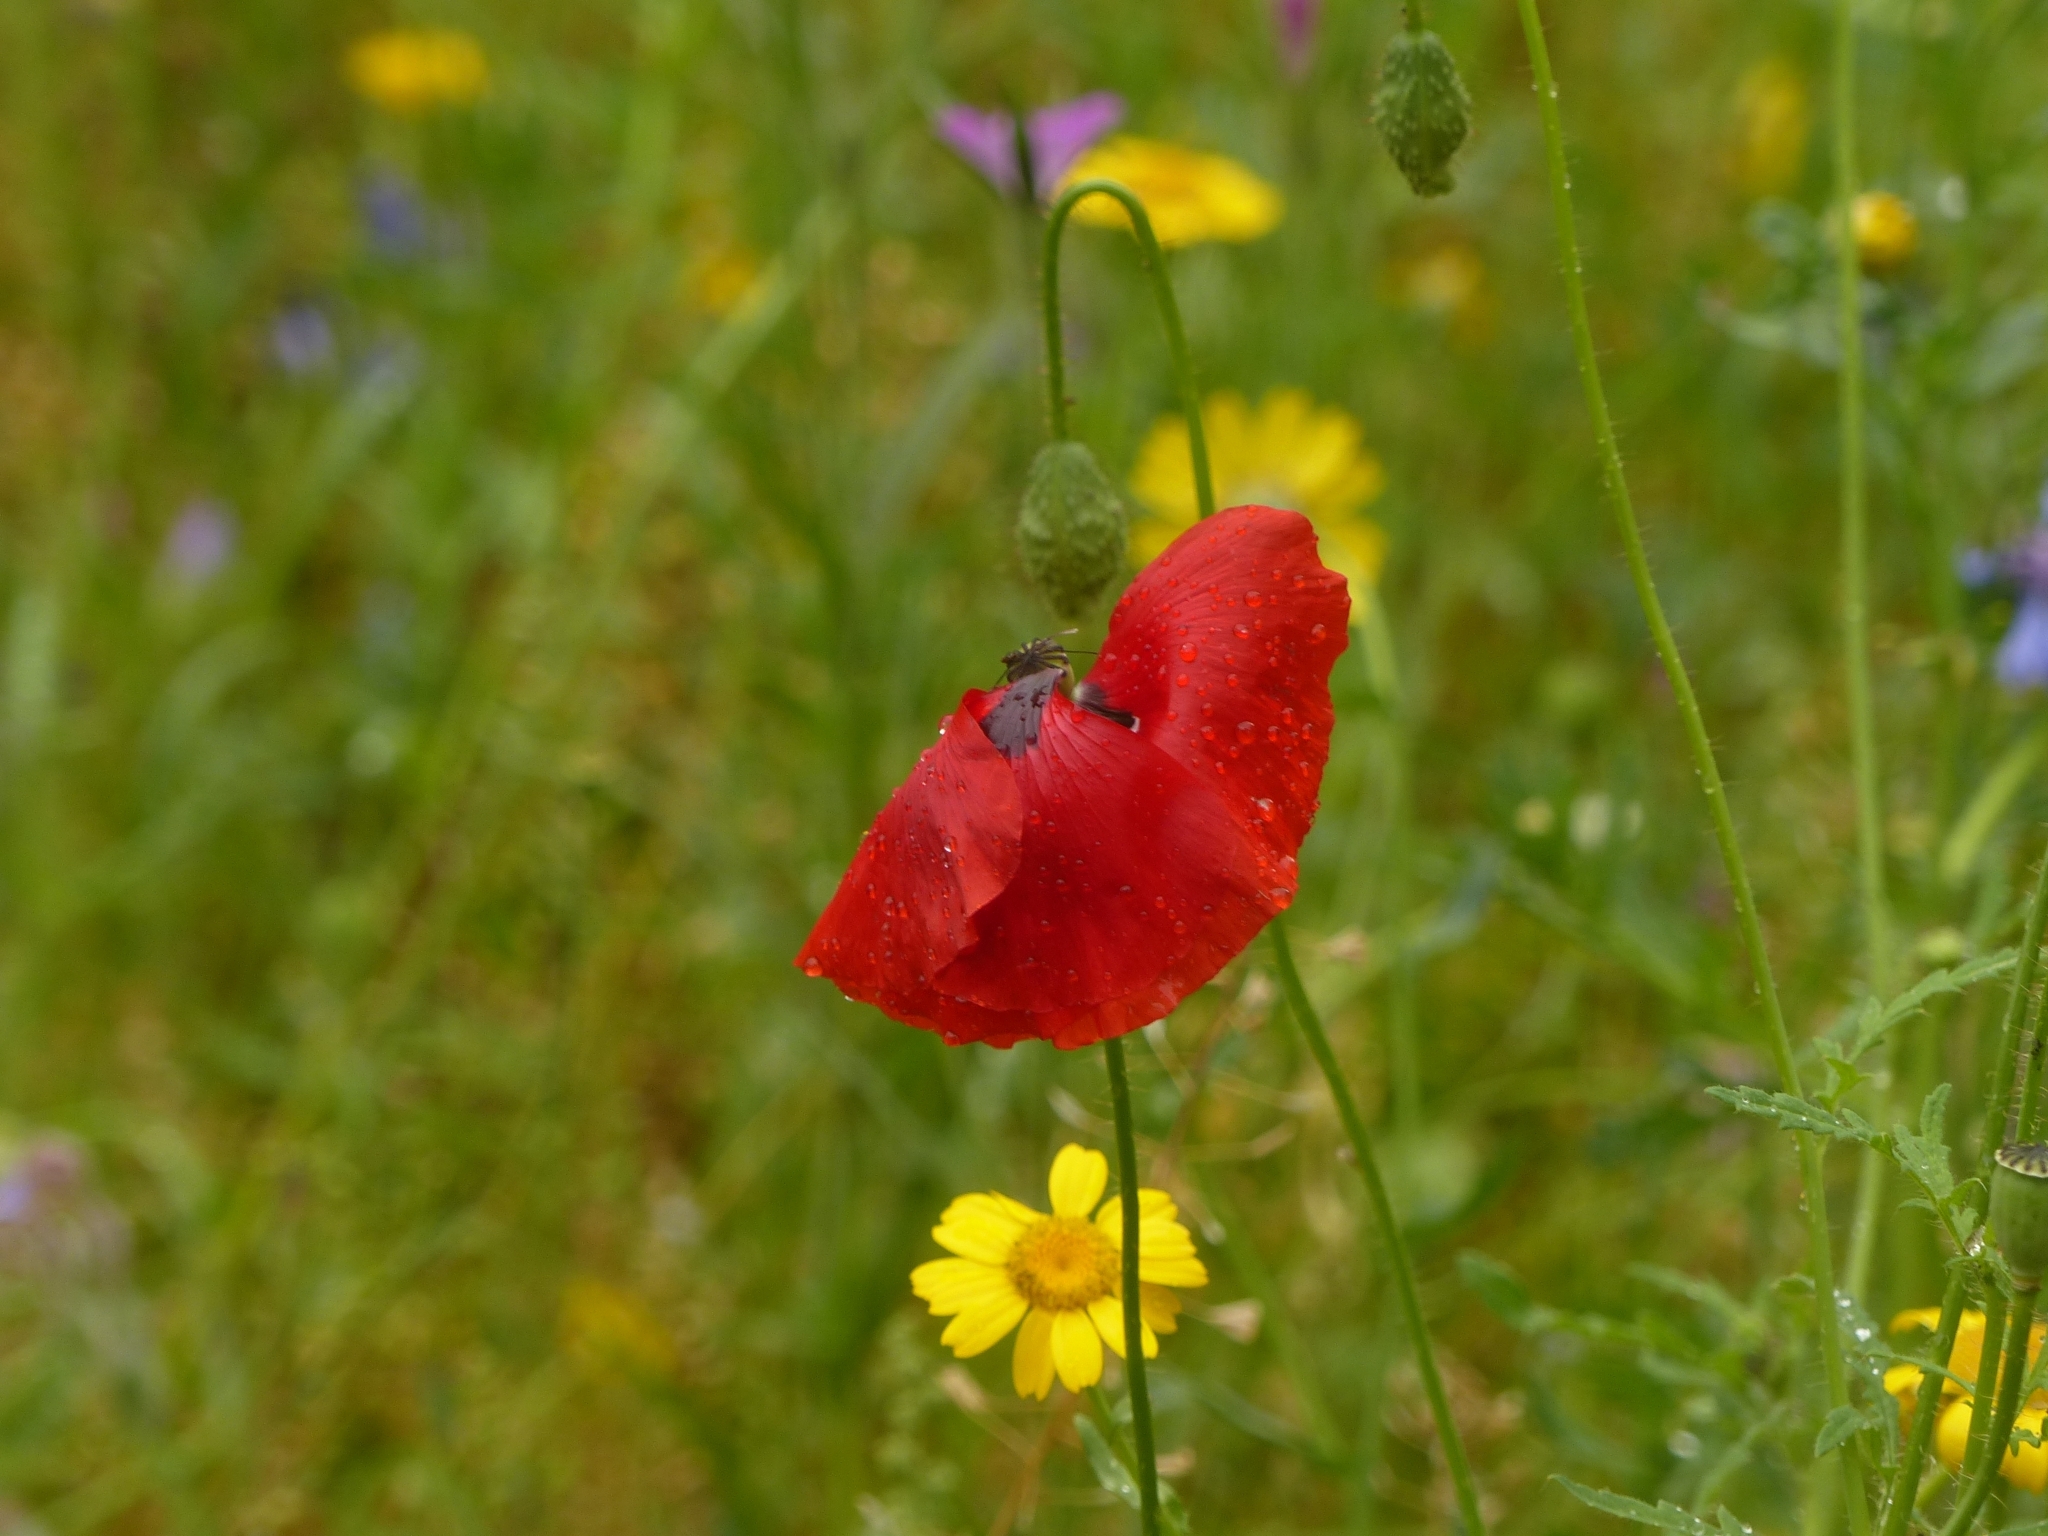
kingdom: Plantae
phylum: Tracheophyta
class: Magnoliopsida
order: Ranunculales
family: Papaveraceae
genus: Papaver
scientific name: Papaver rhoeas
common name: Corn poppy
